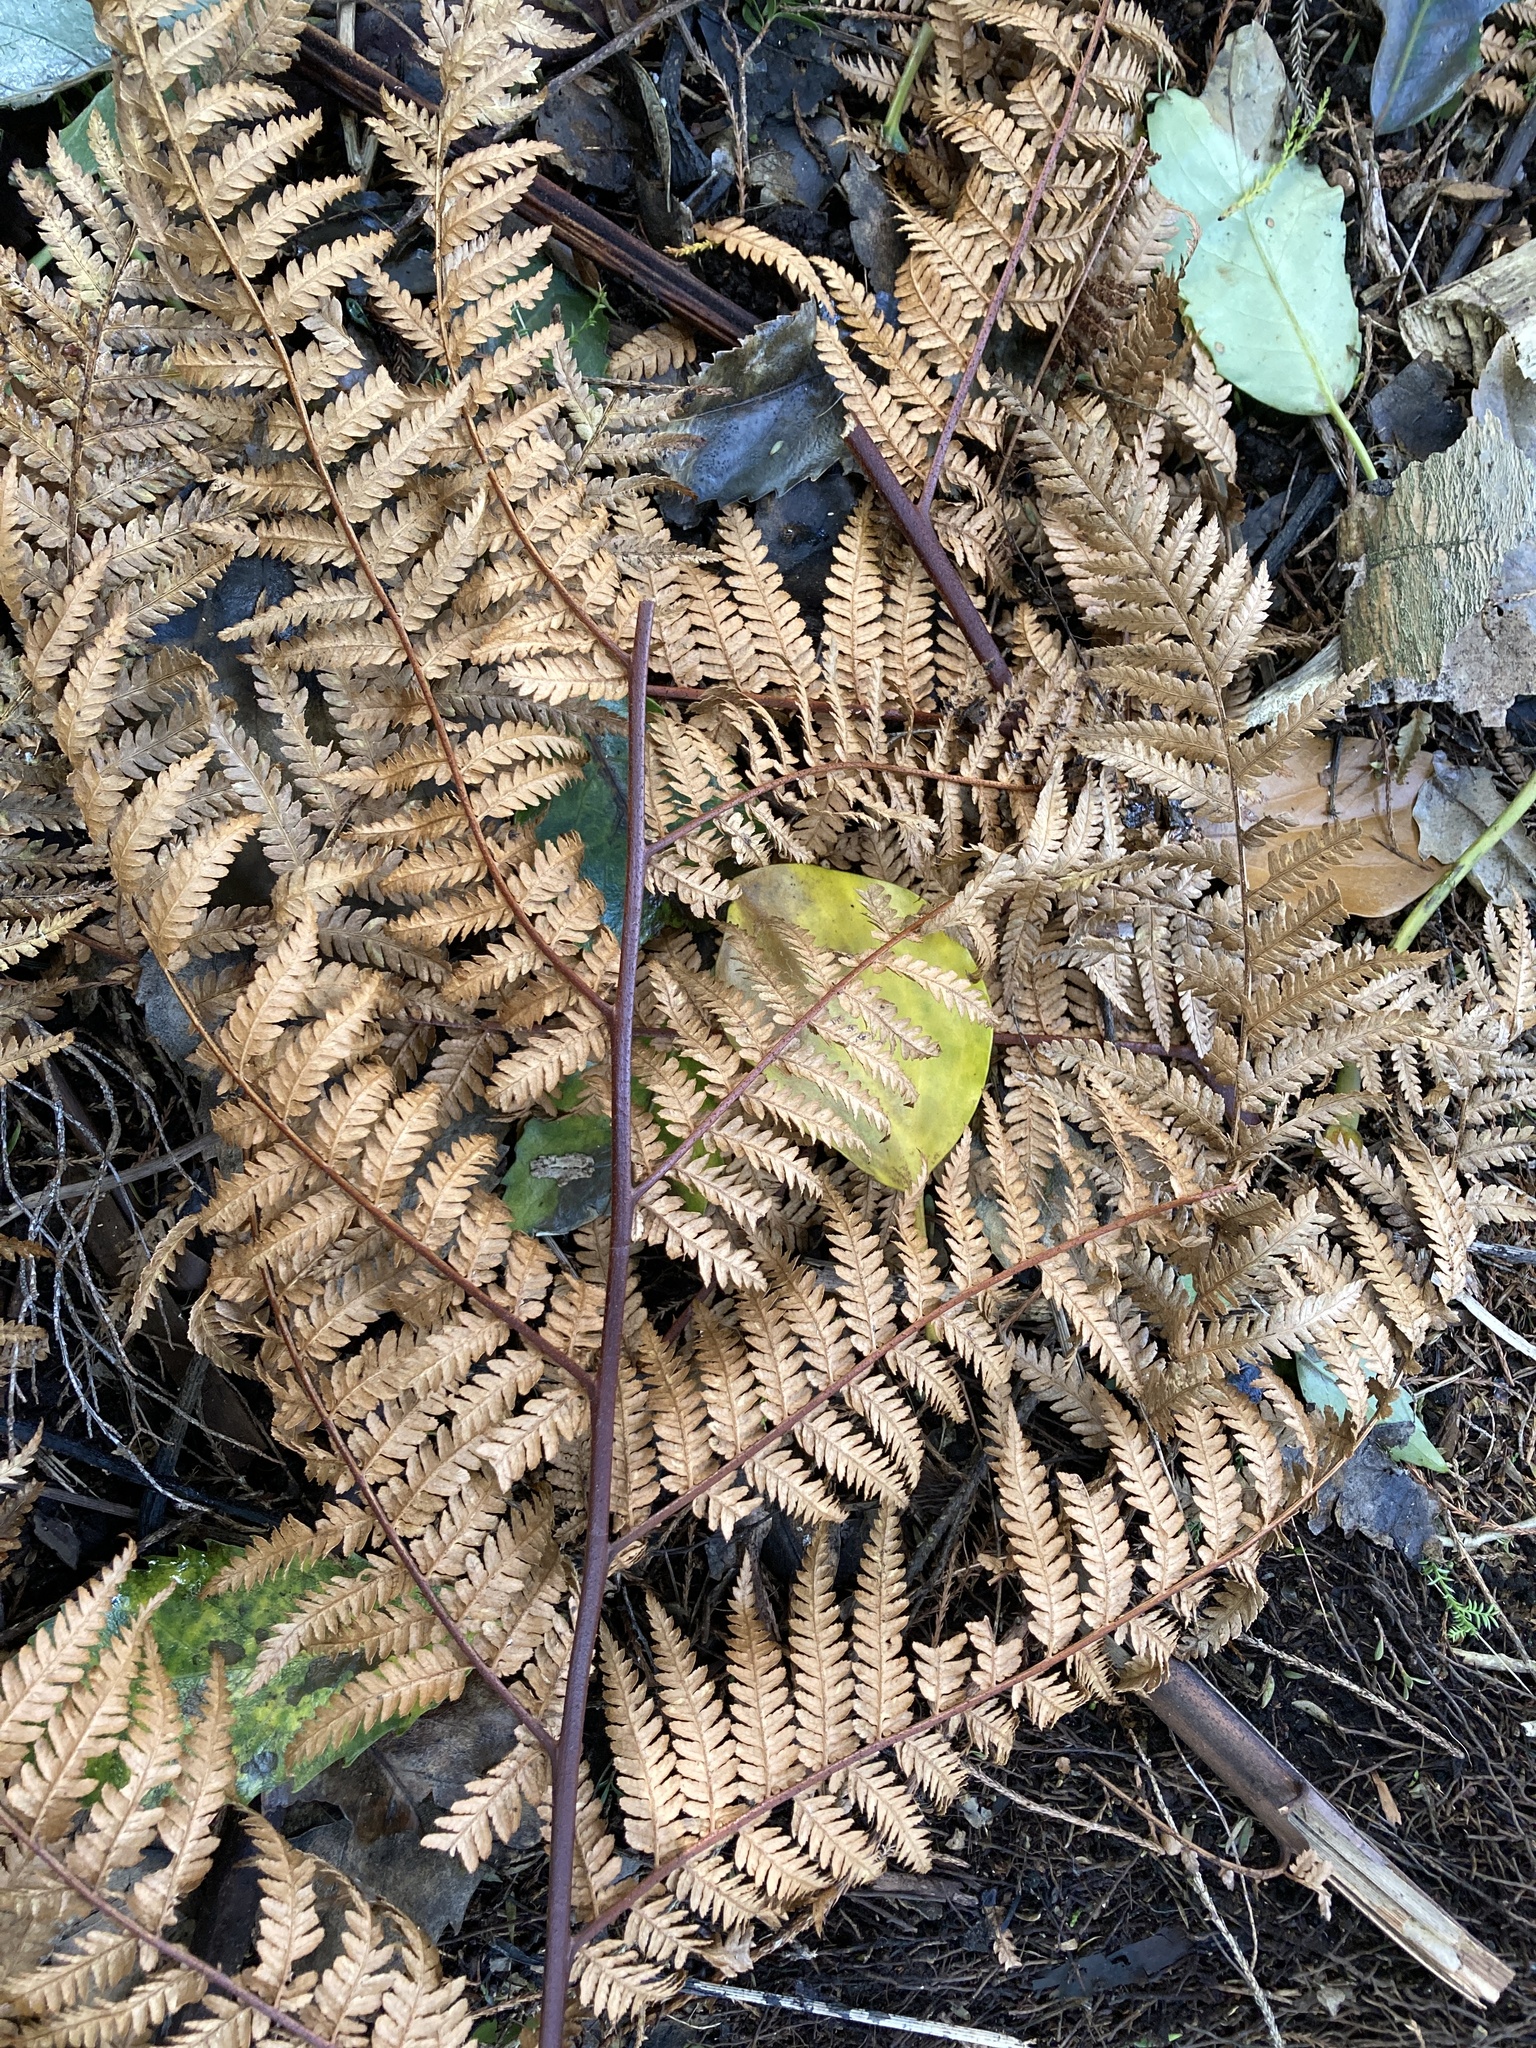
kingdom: Plantae
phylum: Tracheophyta
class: Polypodiopsida
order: Cyatheales
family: Dicksoniaceae
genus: Dicksonia
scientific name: Dicksonia squarrosa
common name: Hard treefern
